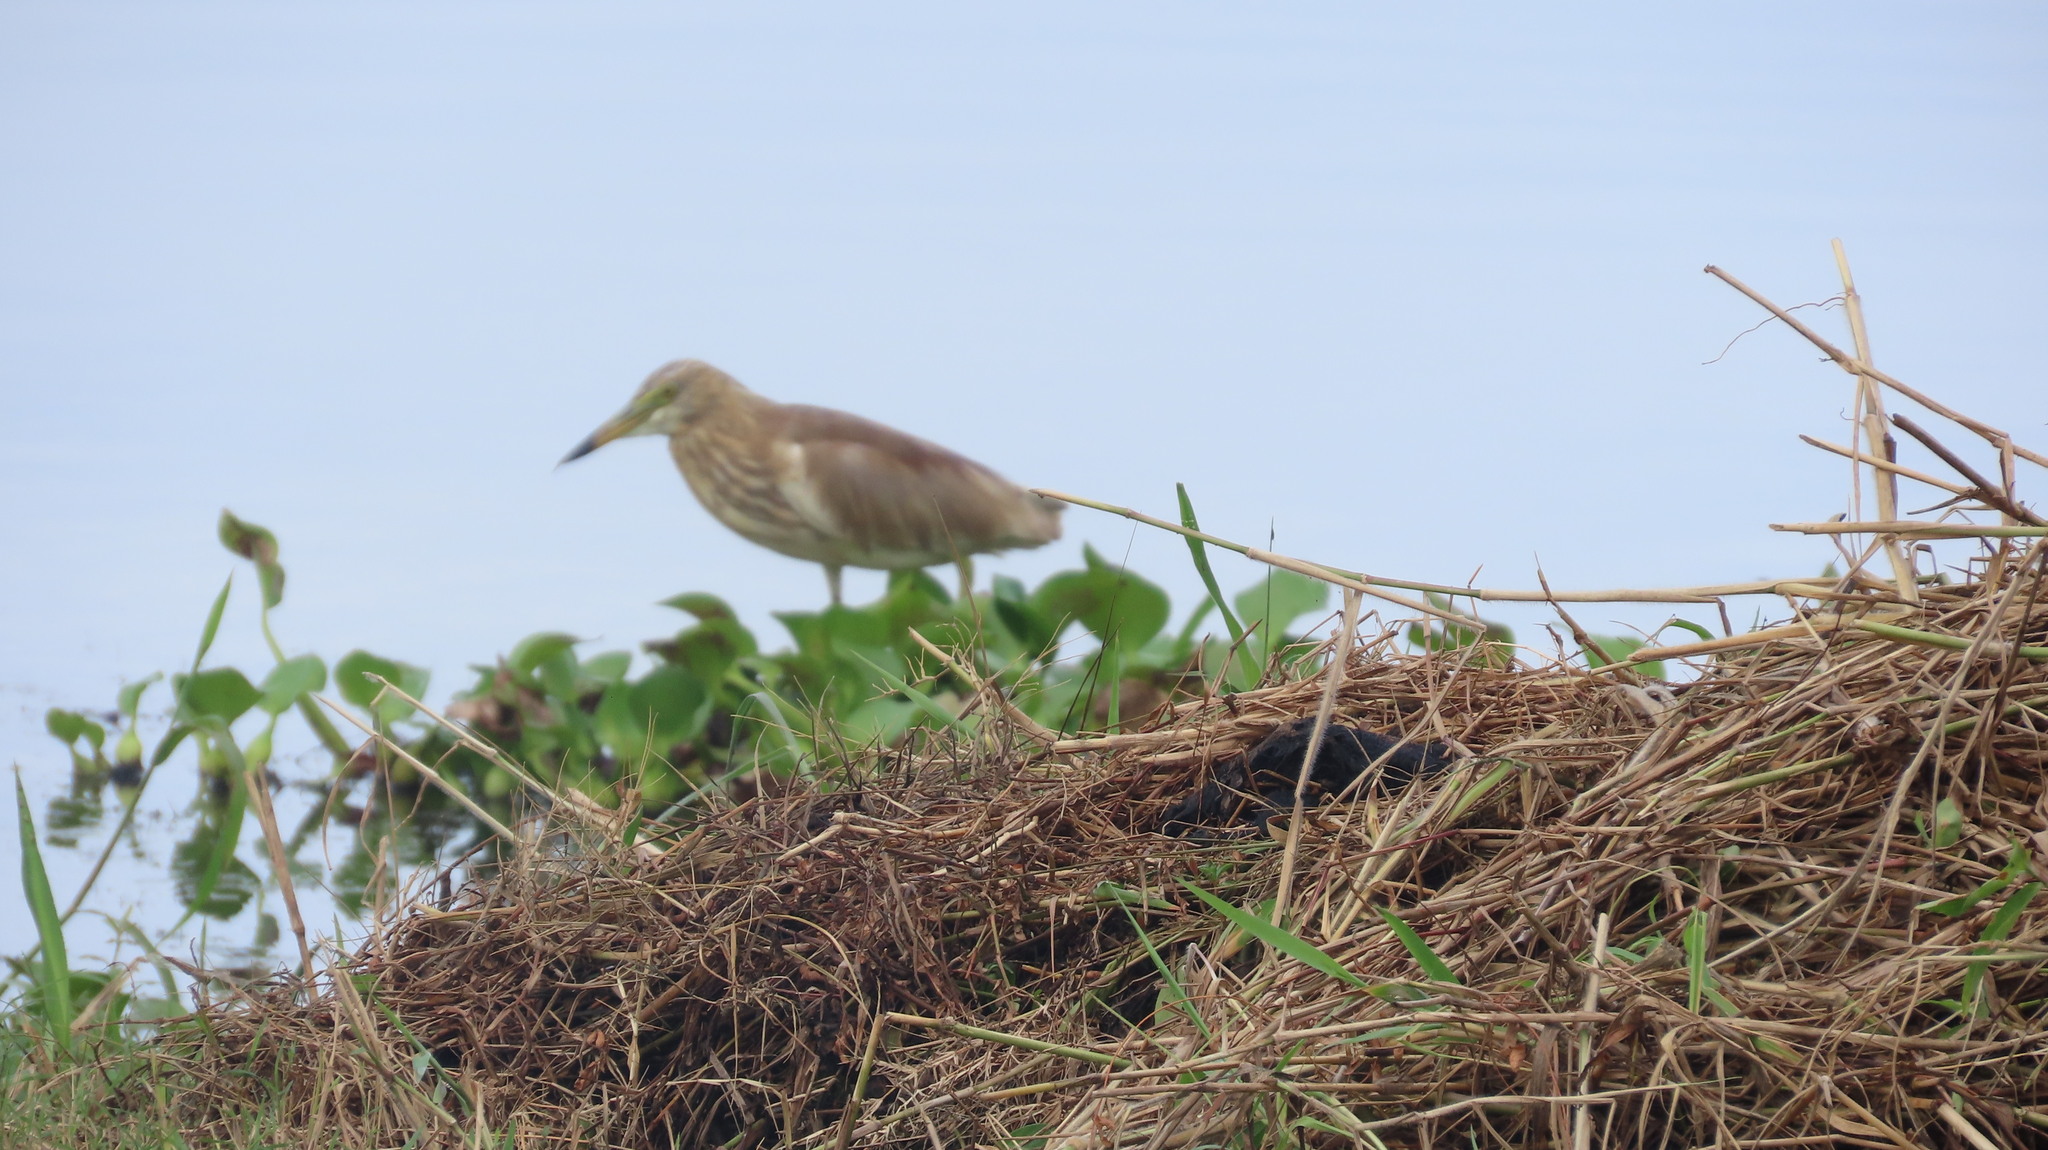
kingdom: Animalia
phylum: Chordata
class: Aves
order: Pelecaniformes
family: Ardeidae
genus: Ardeola
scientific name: Ardeola grayii
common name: Indian pond heron
